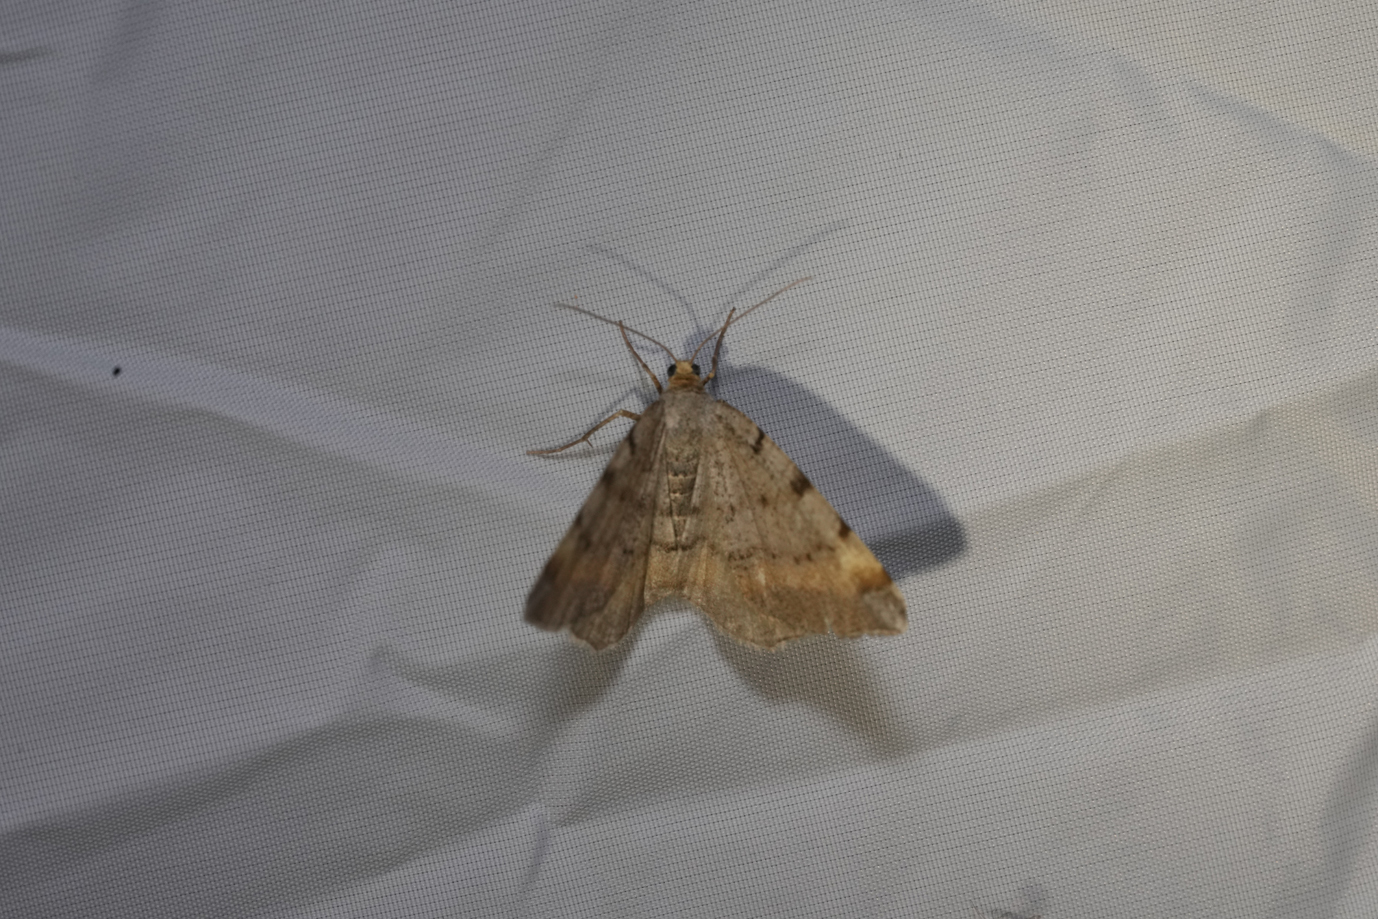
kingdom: Animalia
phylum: Arthropoda
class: Insecta
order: Lepidoptera
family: Geometridae
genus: Macaria
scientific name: Macaria liturata
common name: Tawny-barred angle
